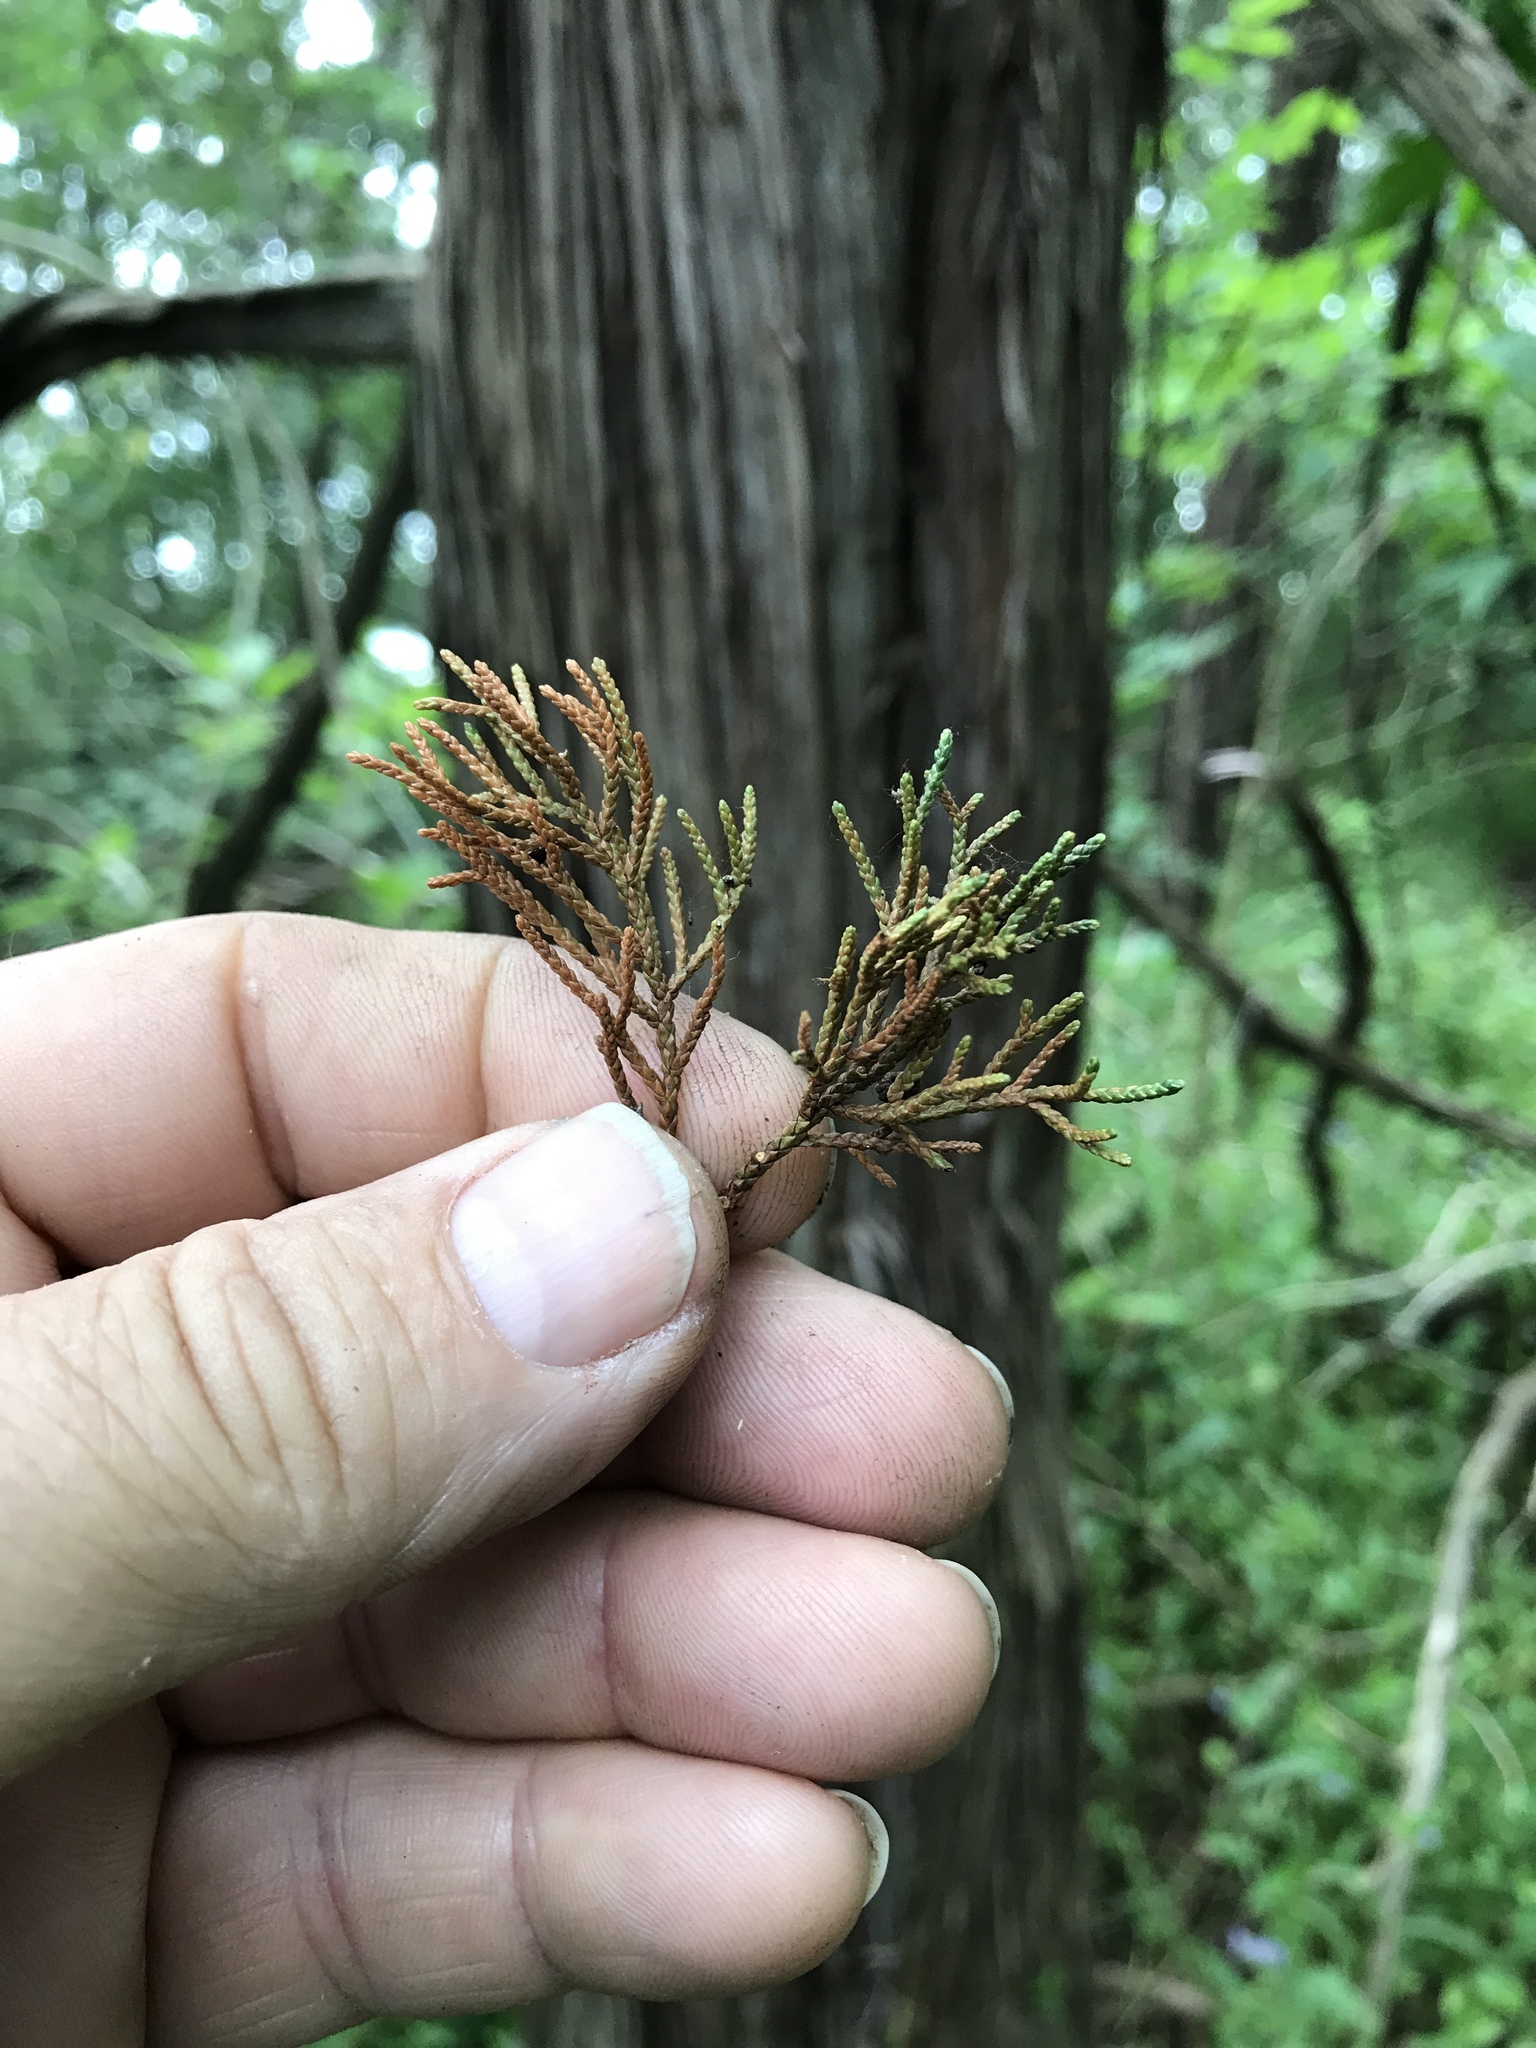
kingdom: Plantae
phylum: Tracheophyta
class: Pinopsida
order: Pinales
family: Cupressaceae
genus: Juniperus
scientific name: Juniperus ashei
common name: Mexican juniper
